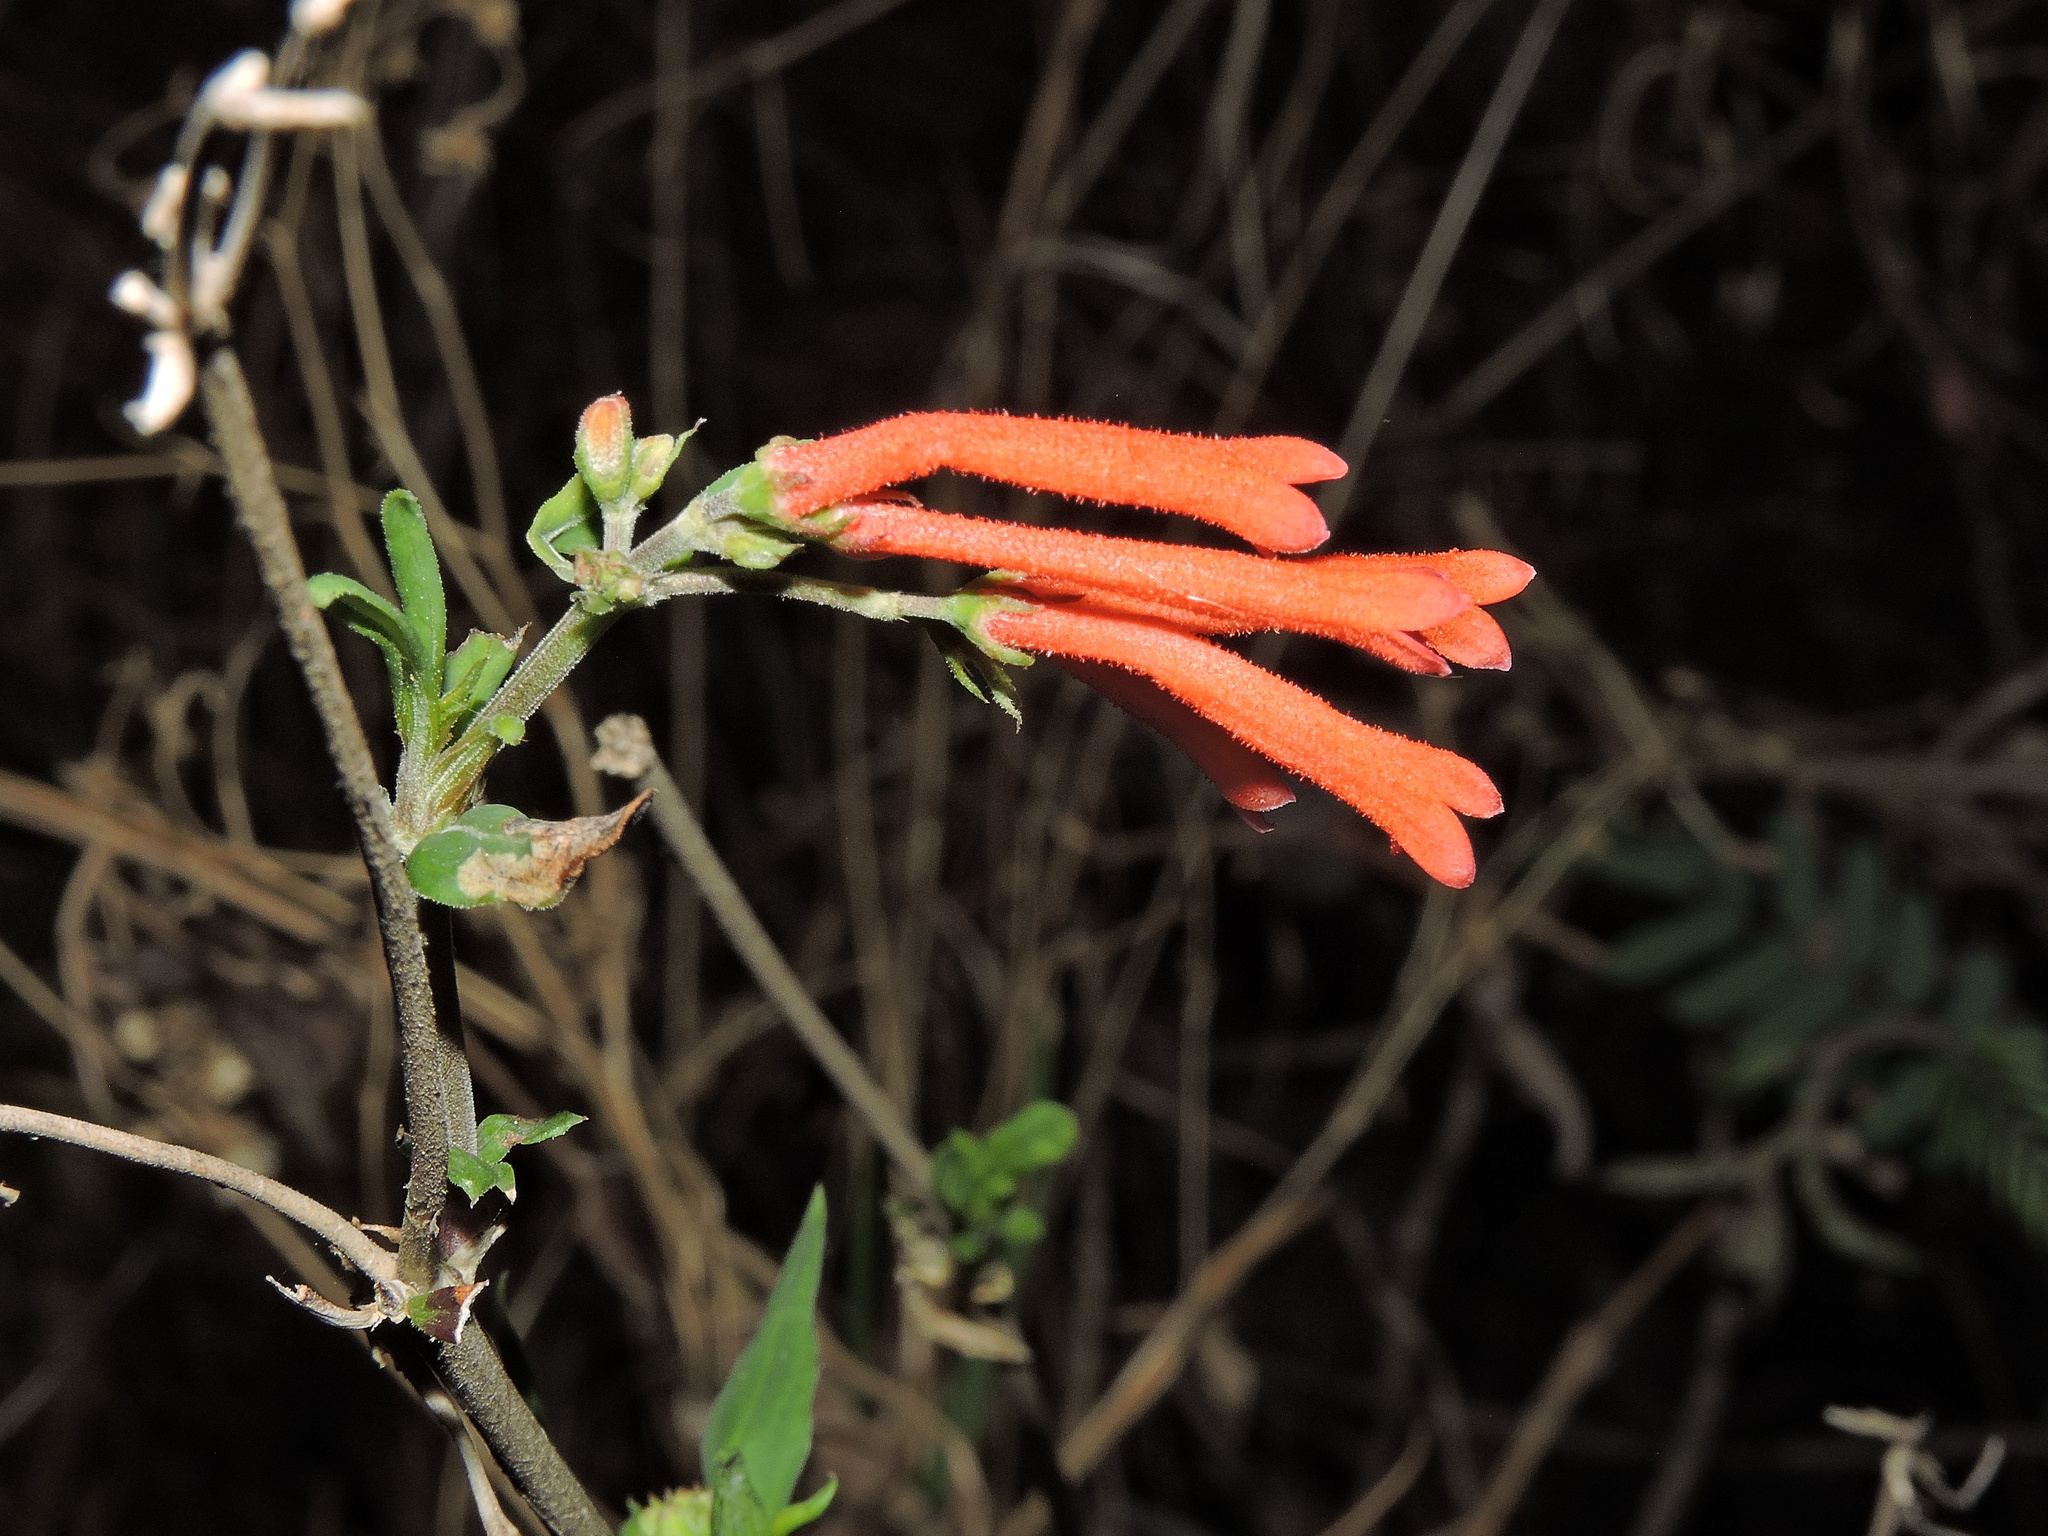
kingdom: Plantae
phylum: Tracheophyta
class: Magnoliopsida
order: Gentianales
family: Rubiaceae
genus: Bouvardia
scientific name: Bouvardia ternifolia
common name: Scarlet bouvardia
